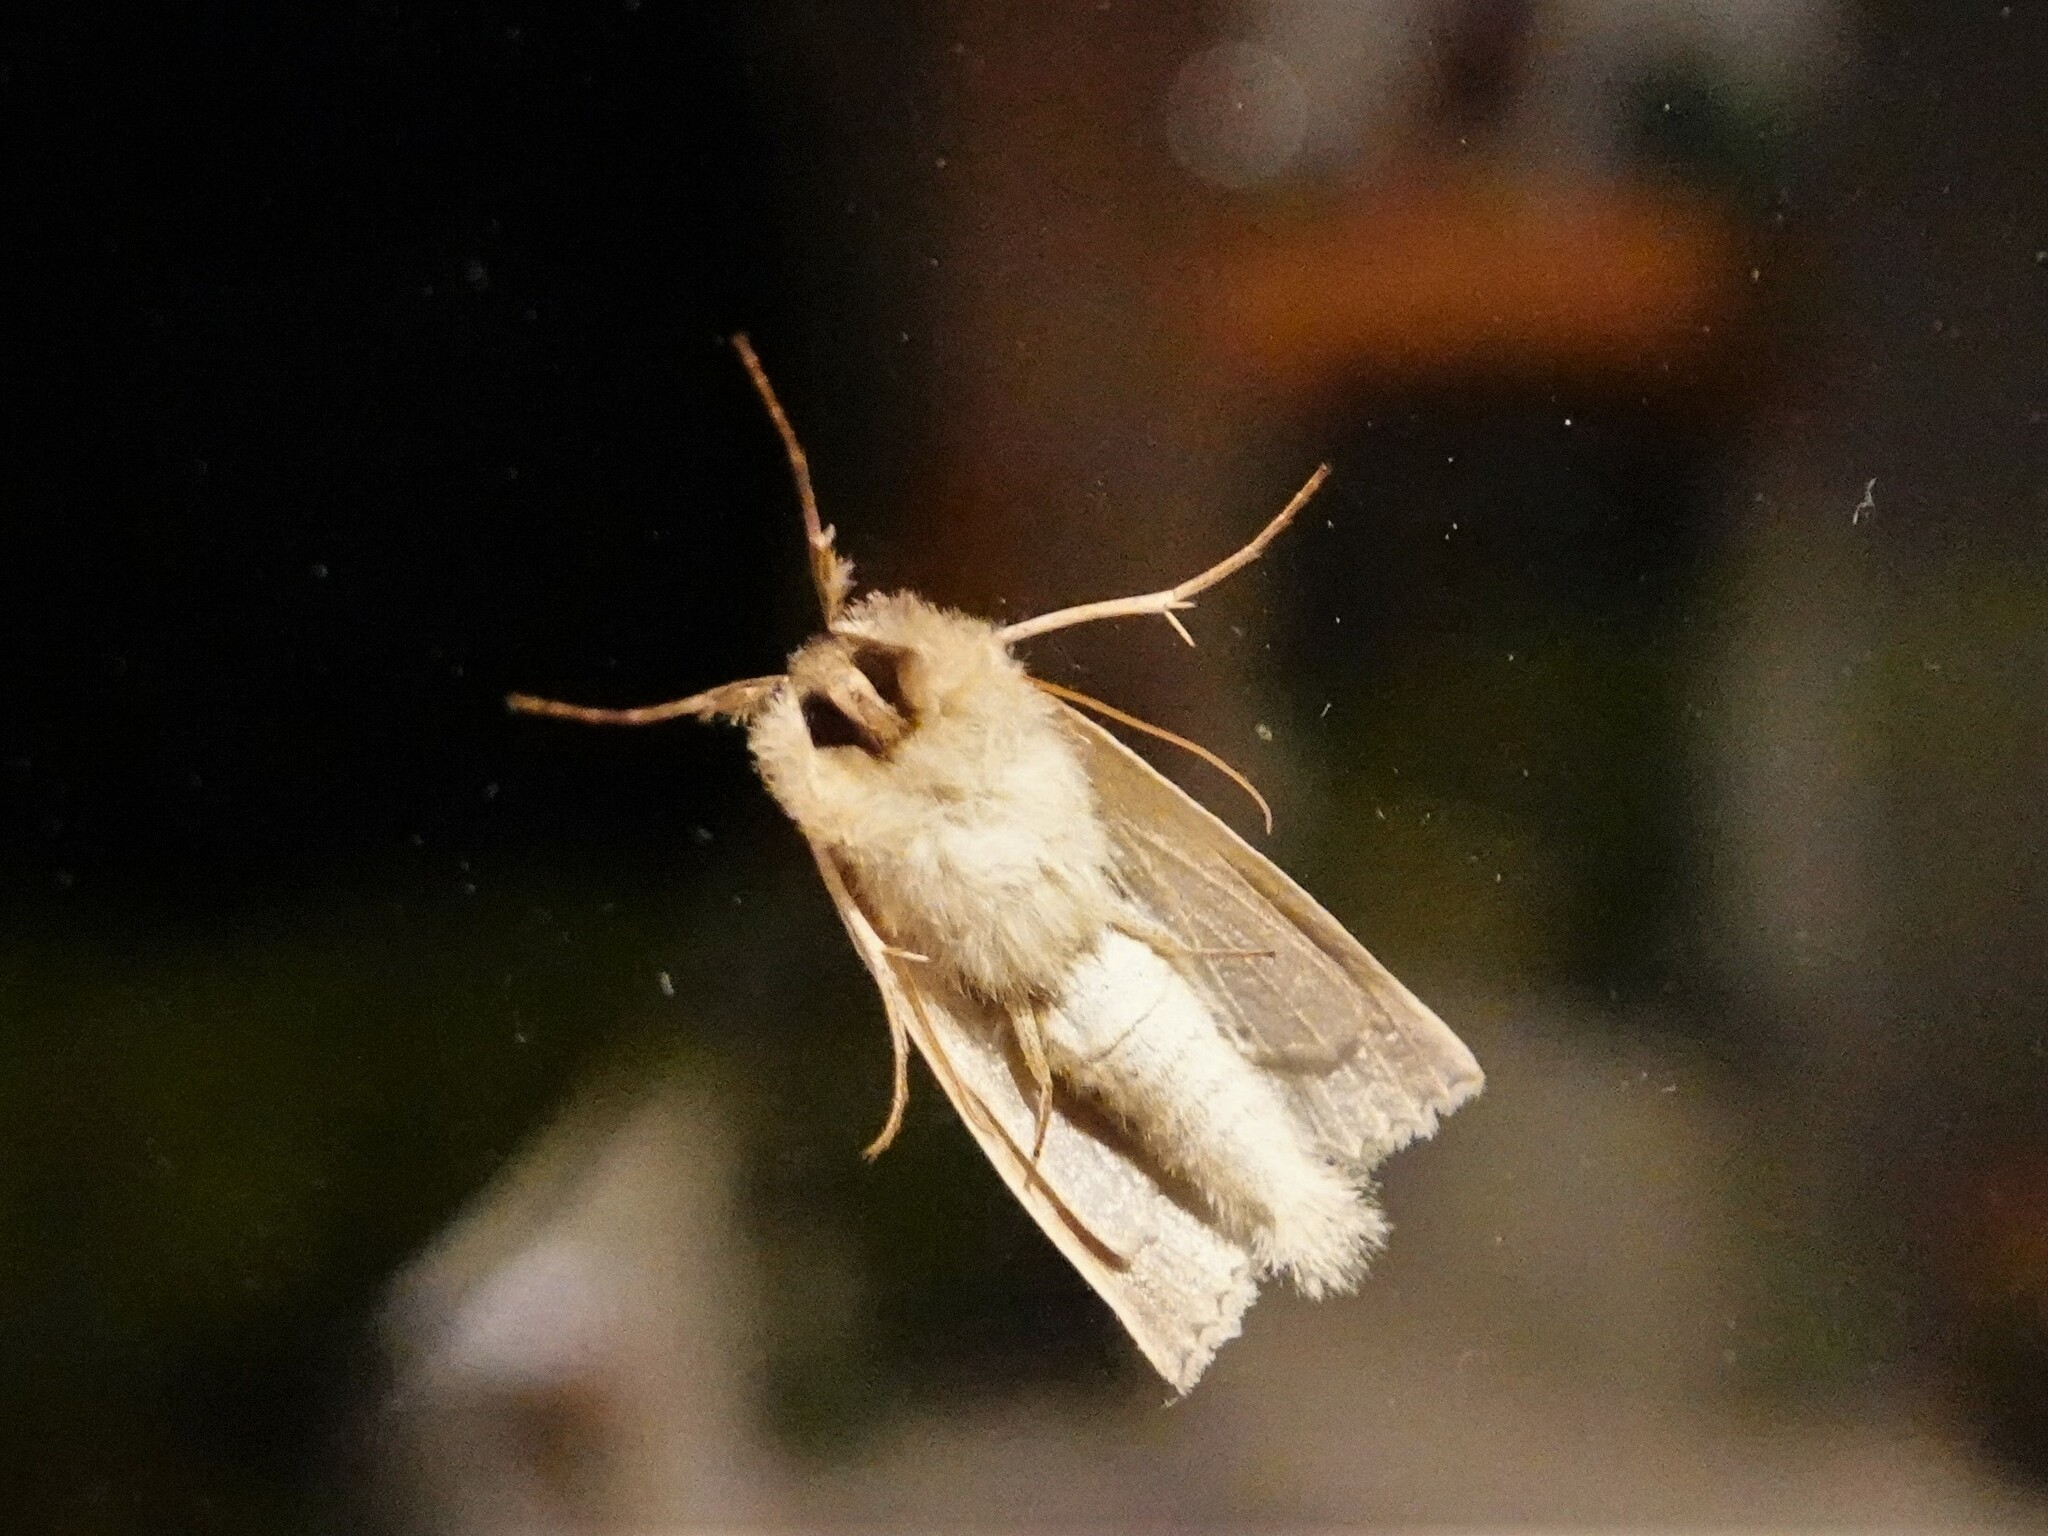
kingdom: Animalia
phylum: Arthropoda
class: Insecta
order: Lepidoptera
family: Geometridae
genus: Declana
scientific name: Declana leptomera
